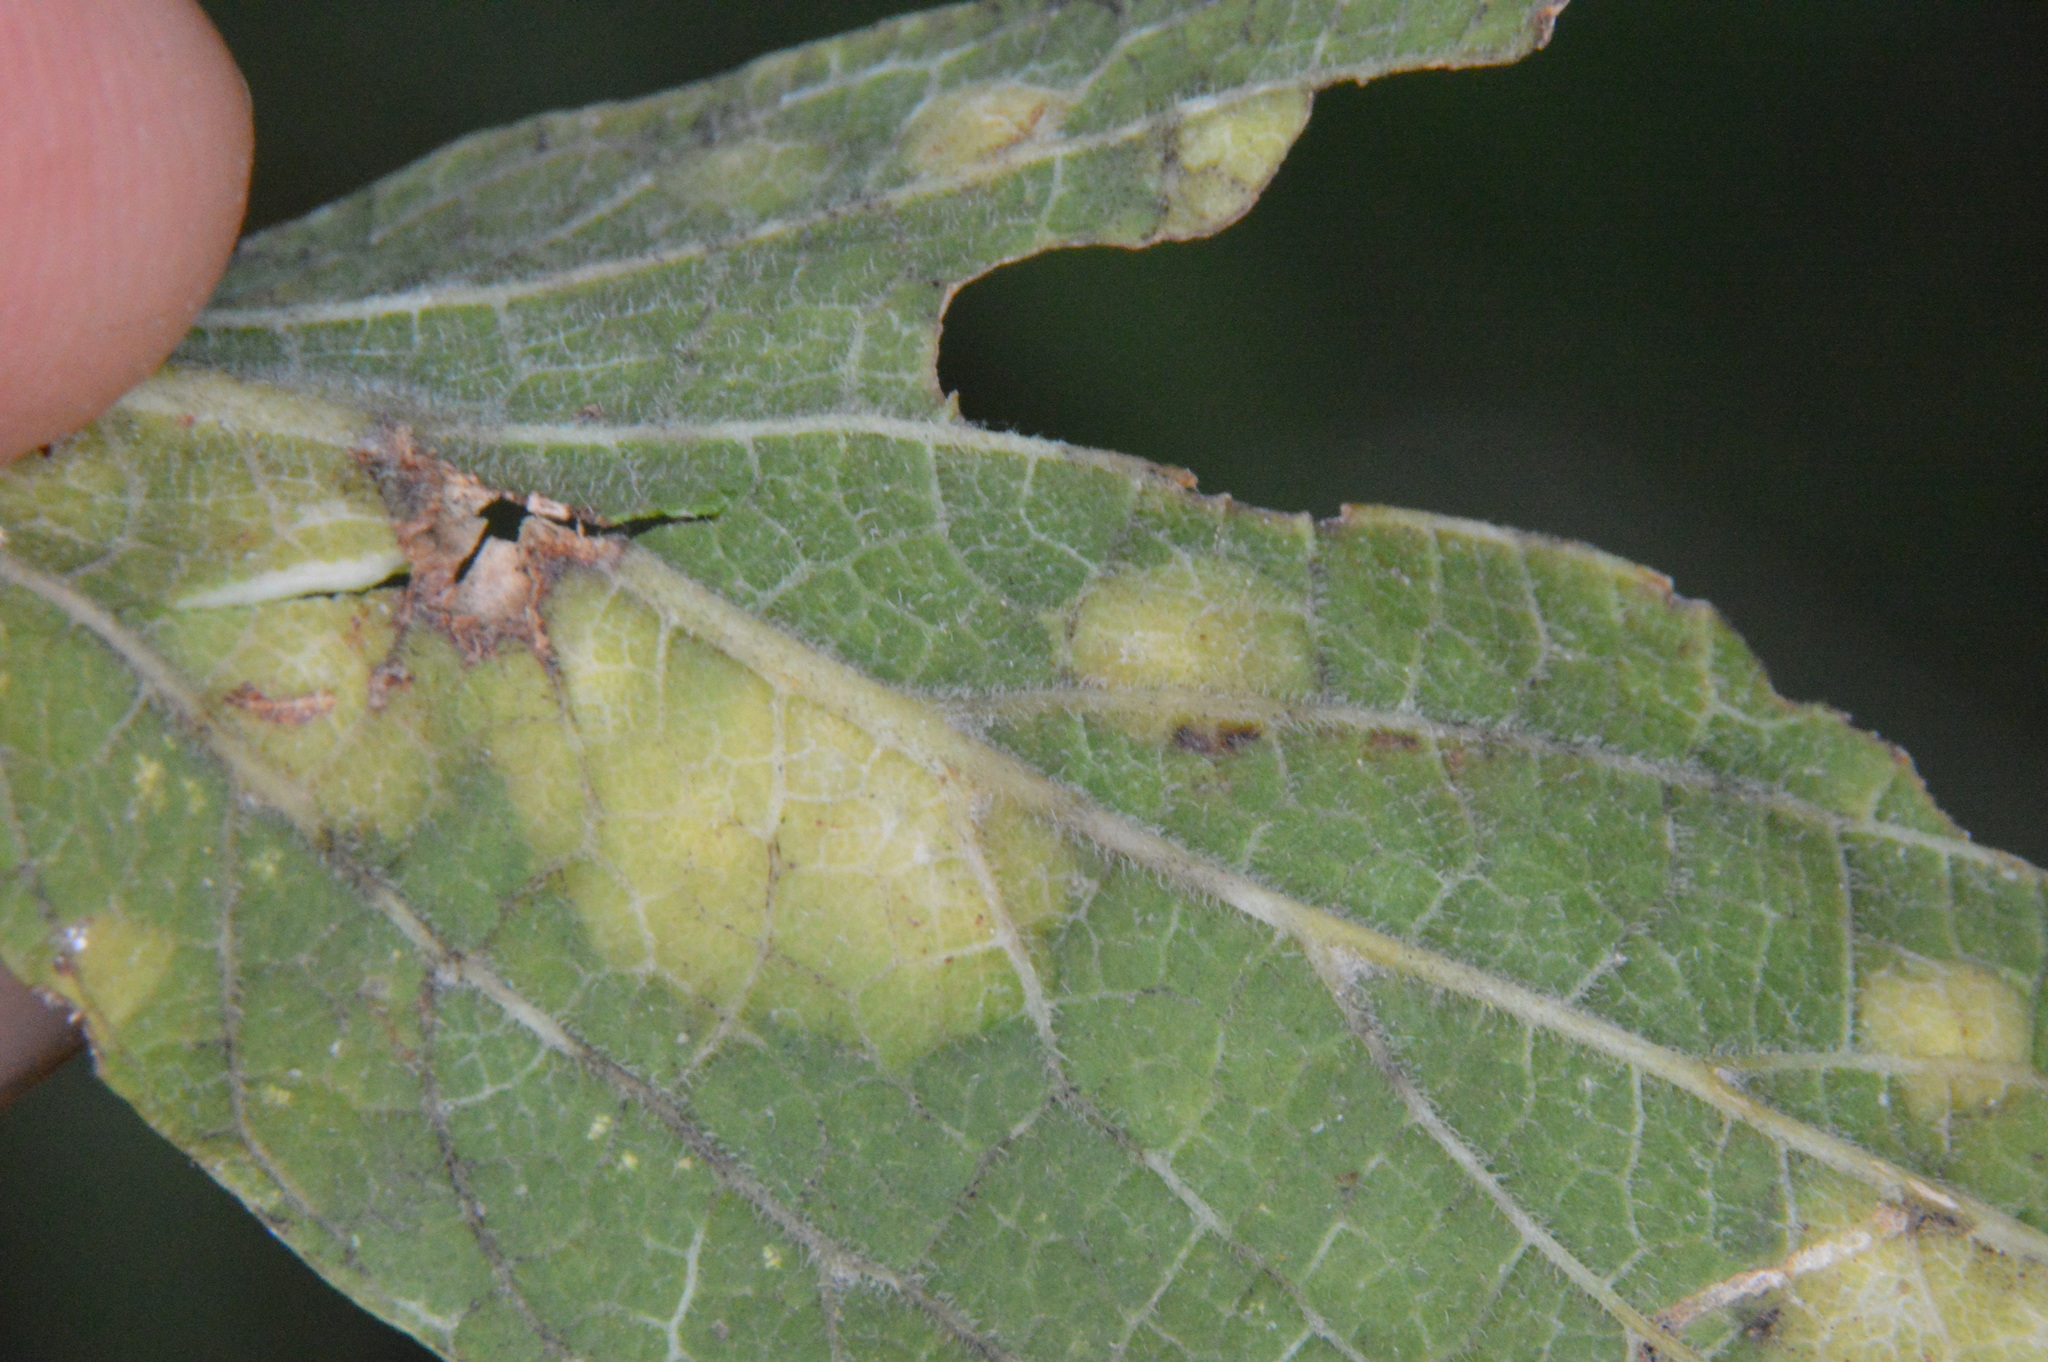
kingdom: Animalia
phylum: Arthropoda
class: Insecta
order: Hemiptera
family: Aphalaridae
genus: Pachypsylla
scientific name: Pachypsylla celtidisvesicula
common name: Hackberry blister gall psyllid
